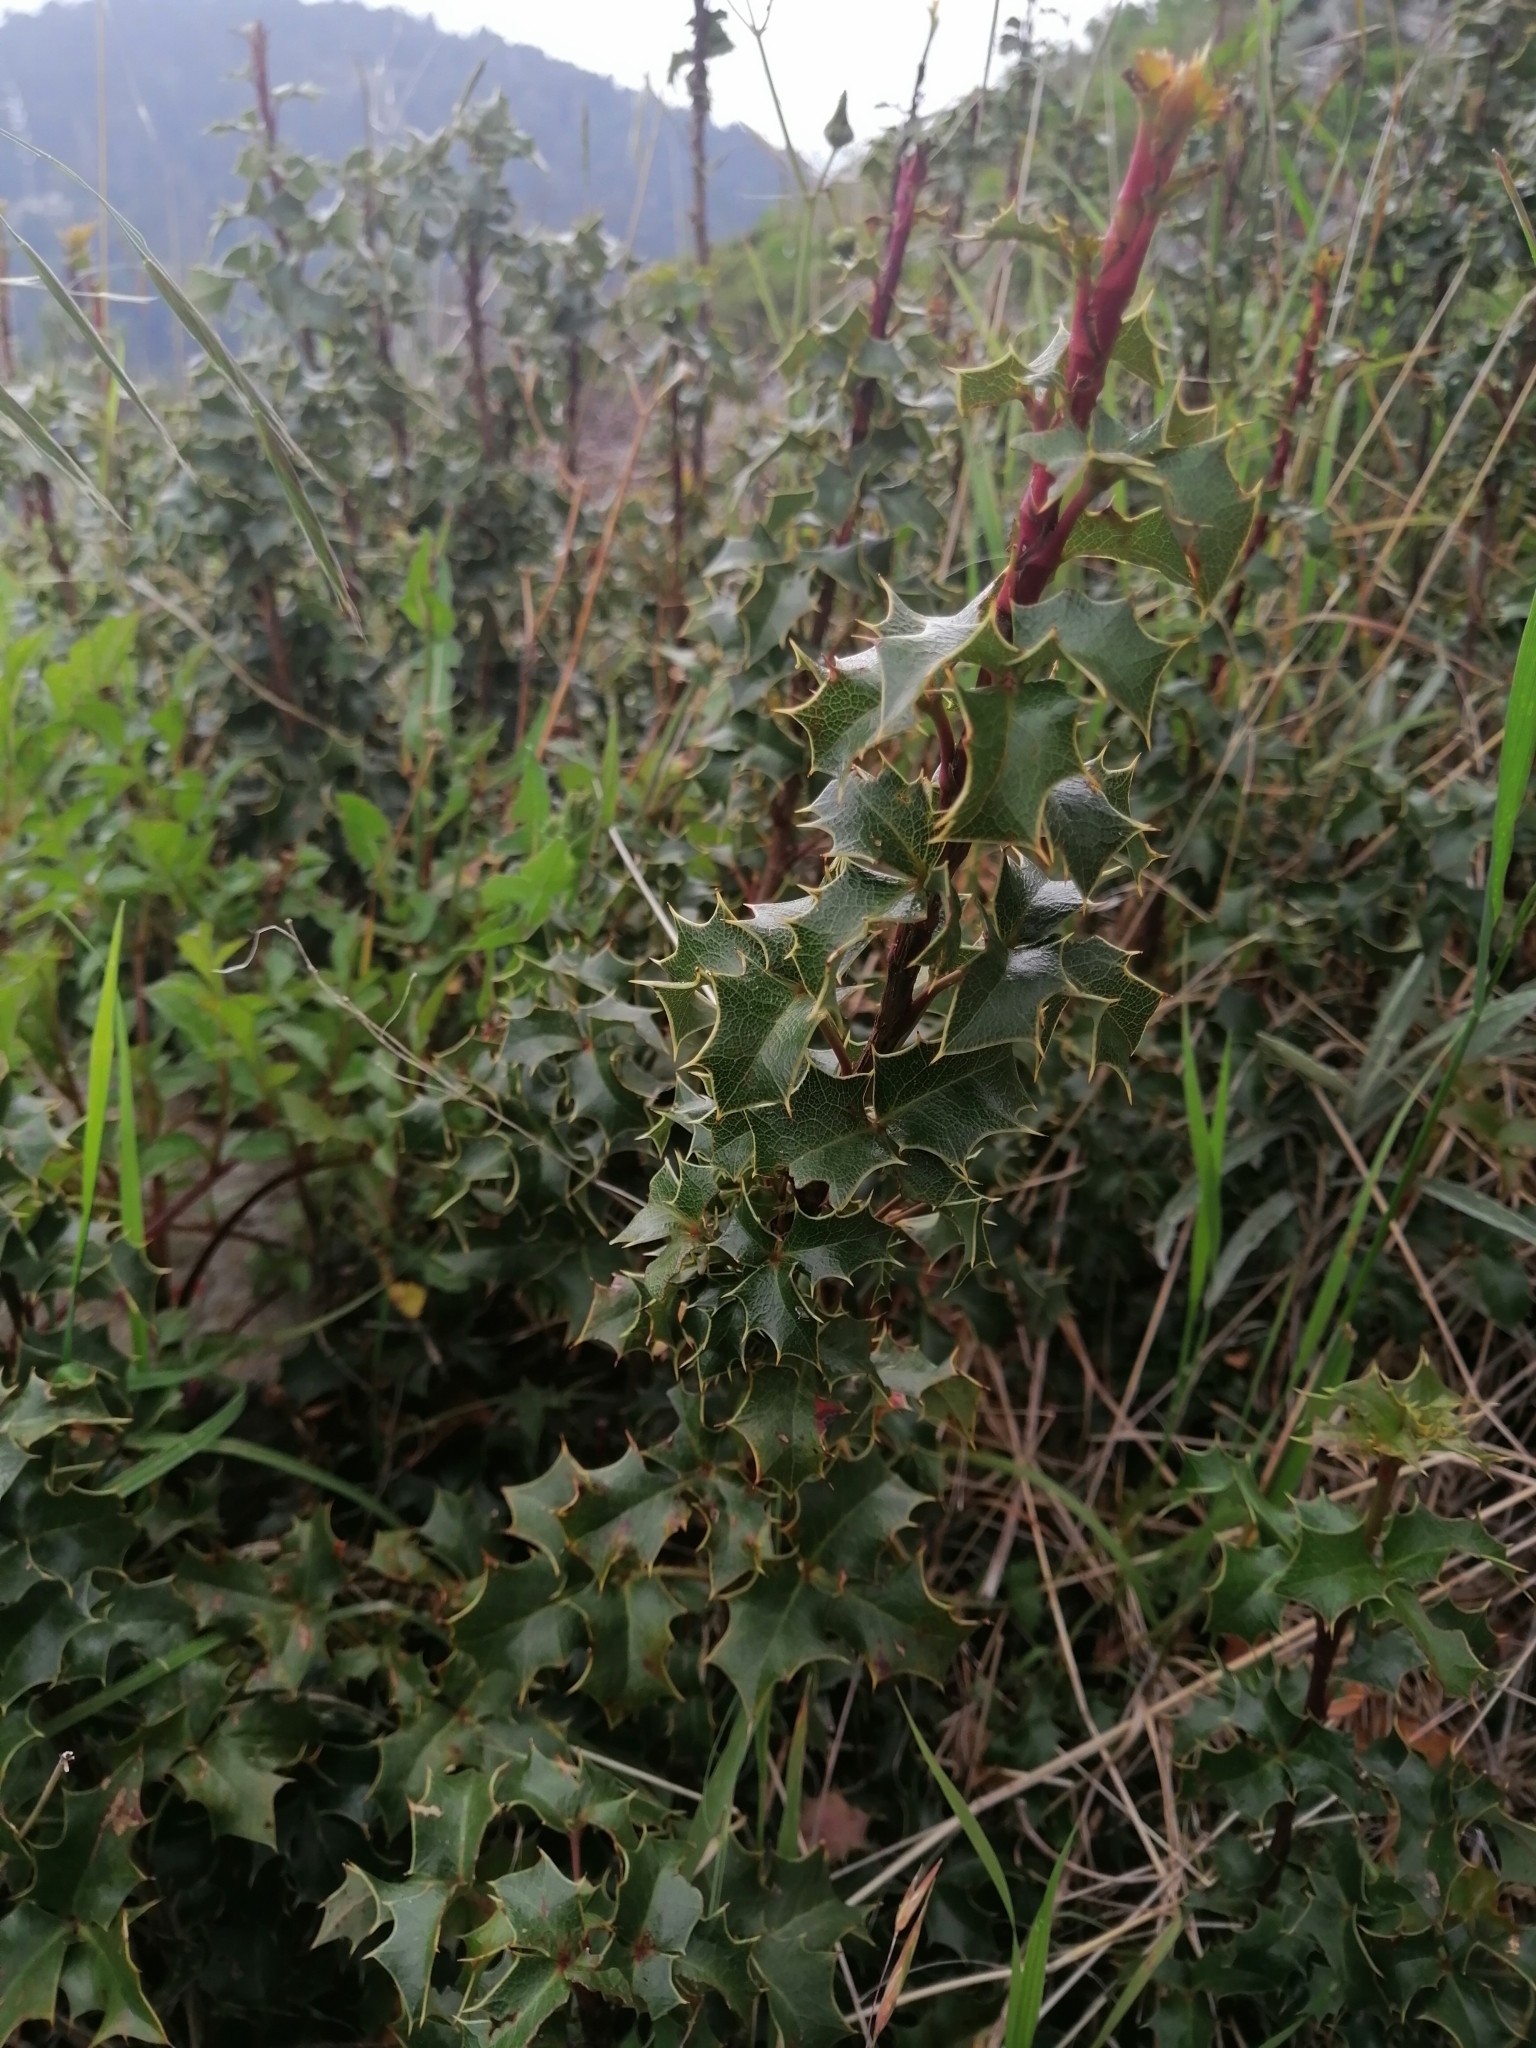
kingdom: Plantae
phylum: Tracheophyta
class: Magnoliopsida
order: Ranunculales
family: Berberidaceae
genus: Mahonia
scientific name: Mahonia alpina
